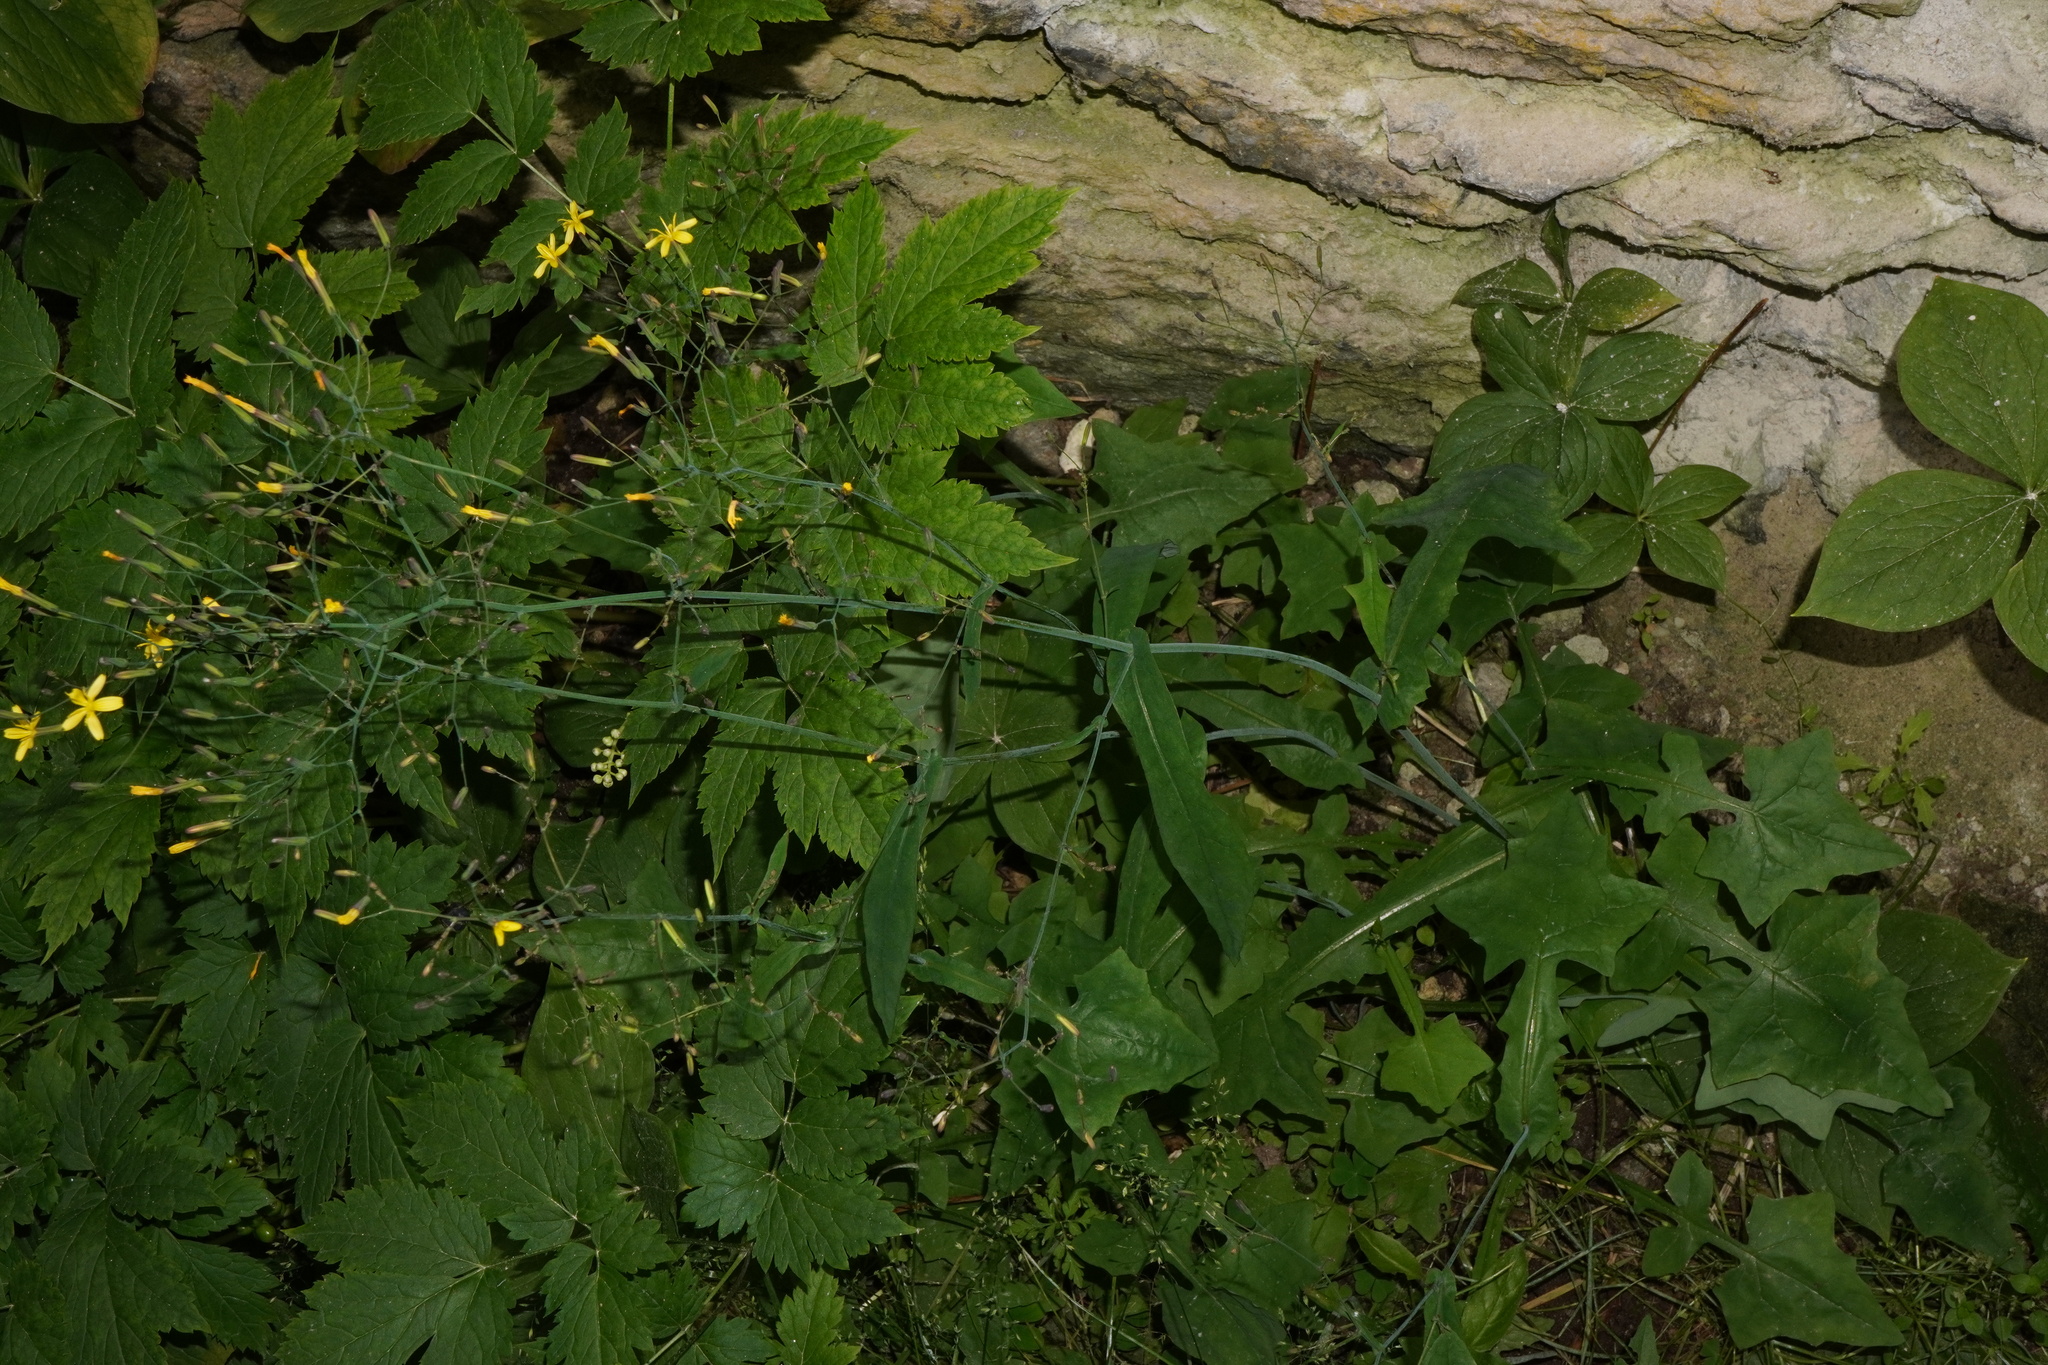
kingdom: Plantae
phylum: Tracheophyta
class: Magnoliopsida
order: Asterales
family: Asteraceae
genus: Mycelis
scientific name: Mycelis muralis
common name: Wall lettuce
